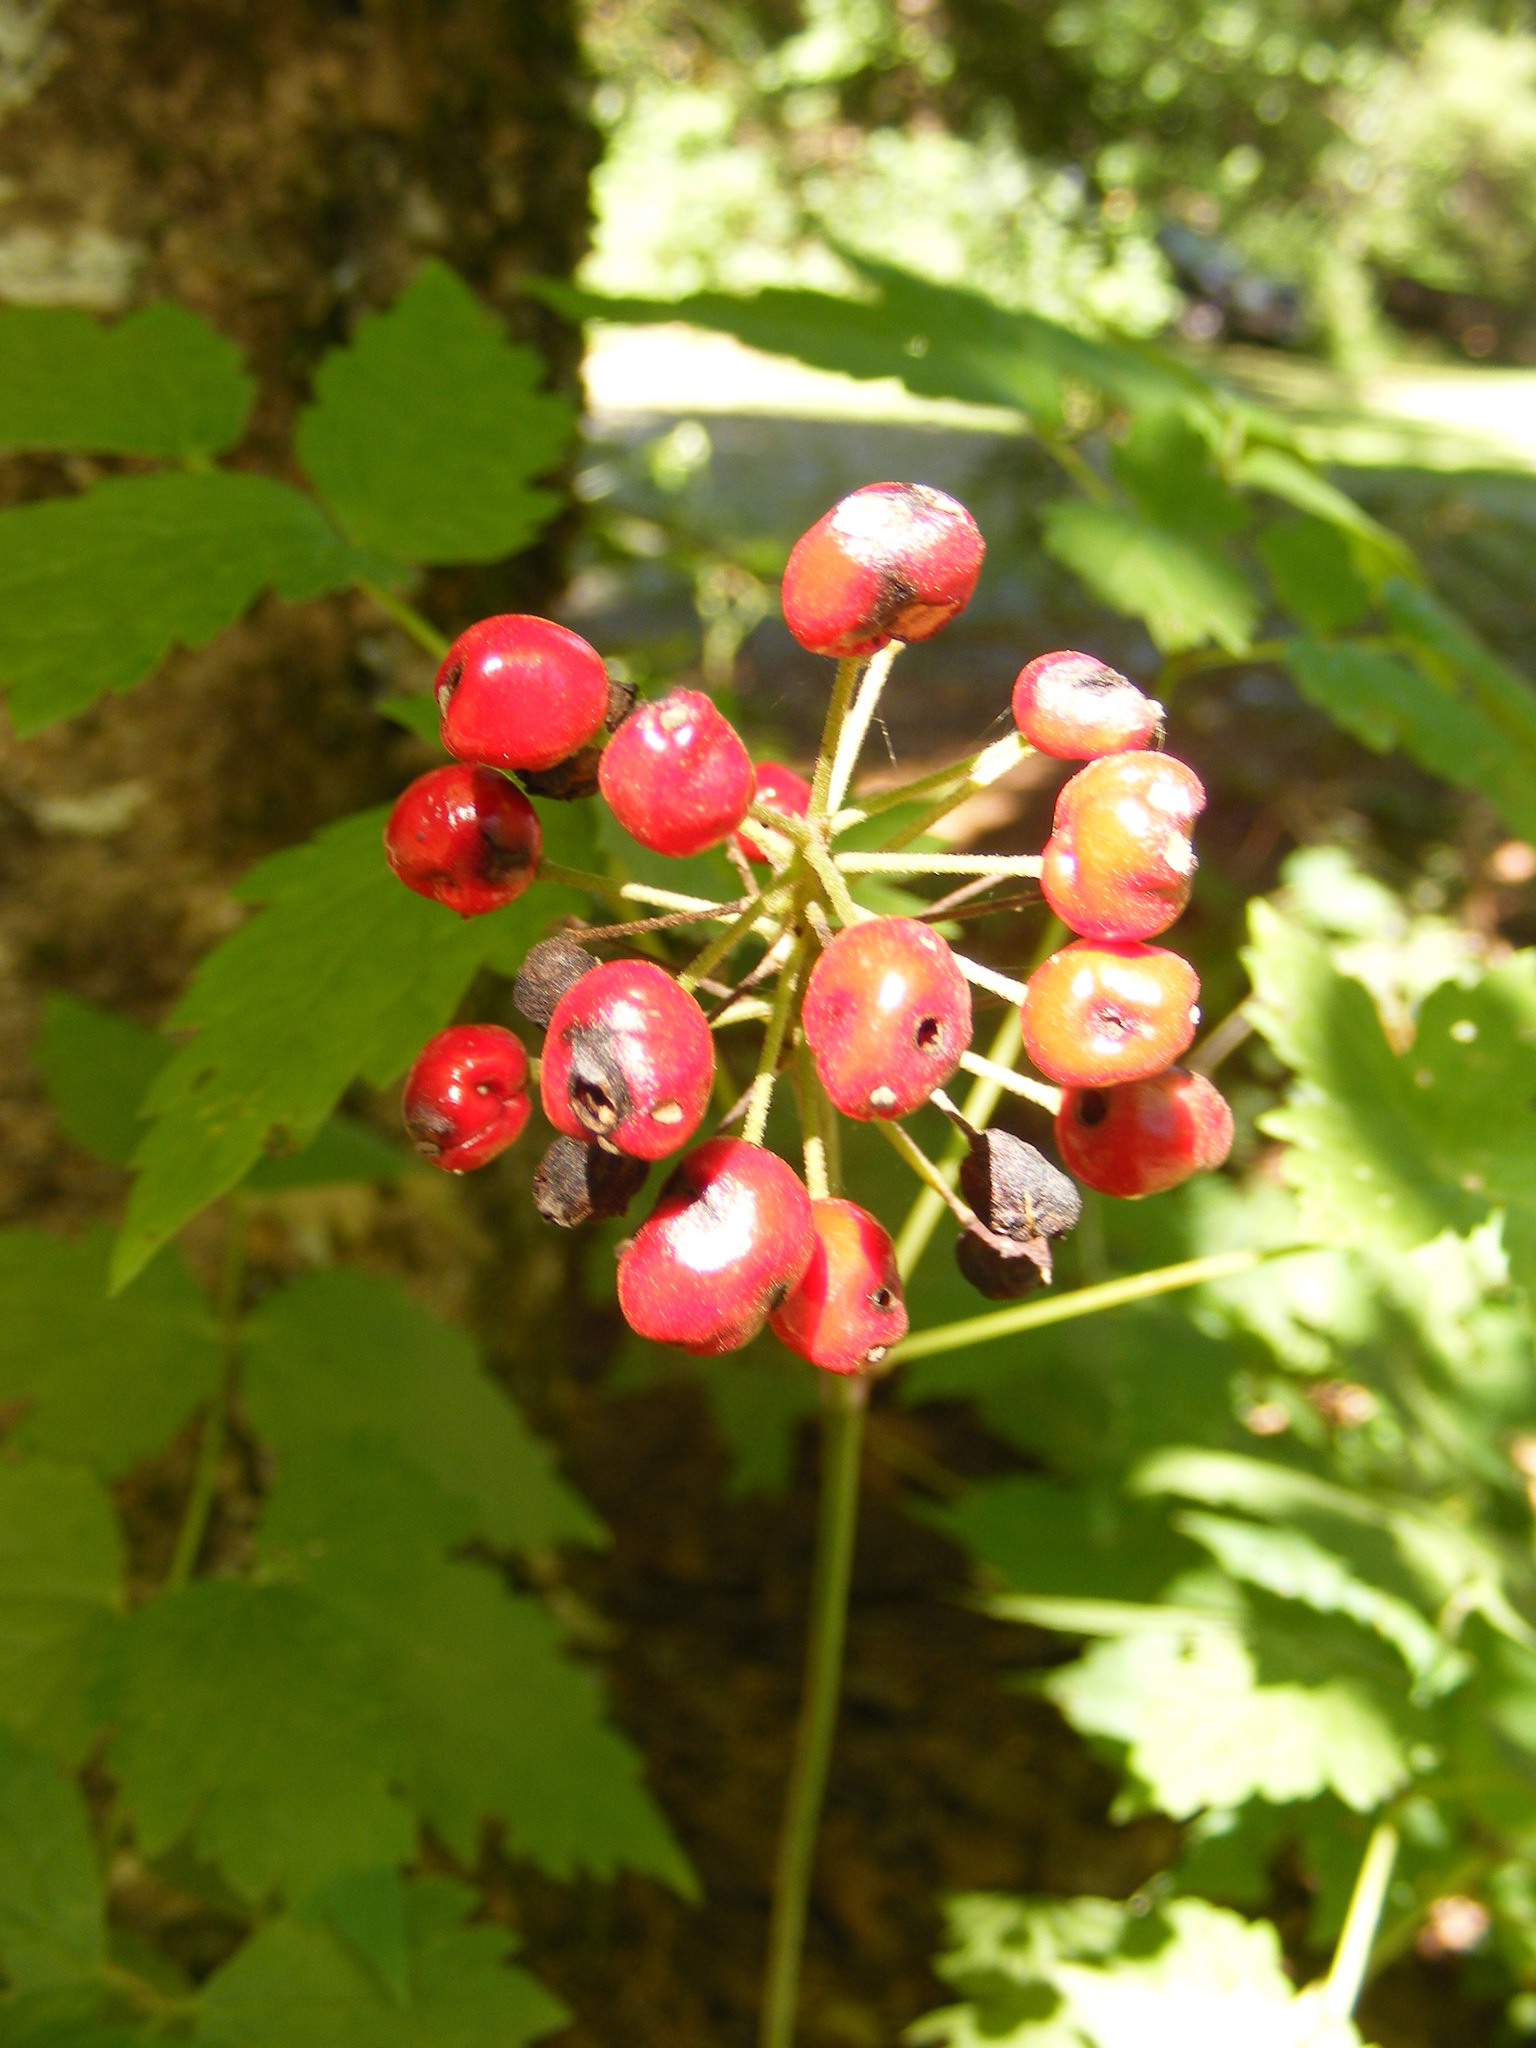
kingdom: Plantae
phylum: Tracheophyta
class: Magnoliopsida
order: Ranunculales
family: Ranunculaceae
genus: Actaea
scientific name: Actaea rubra
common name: Red baneberry
